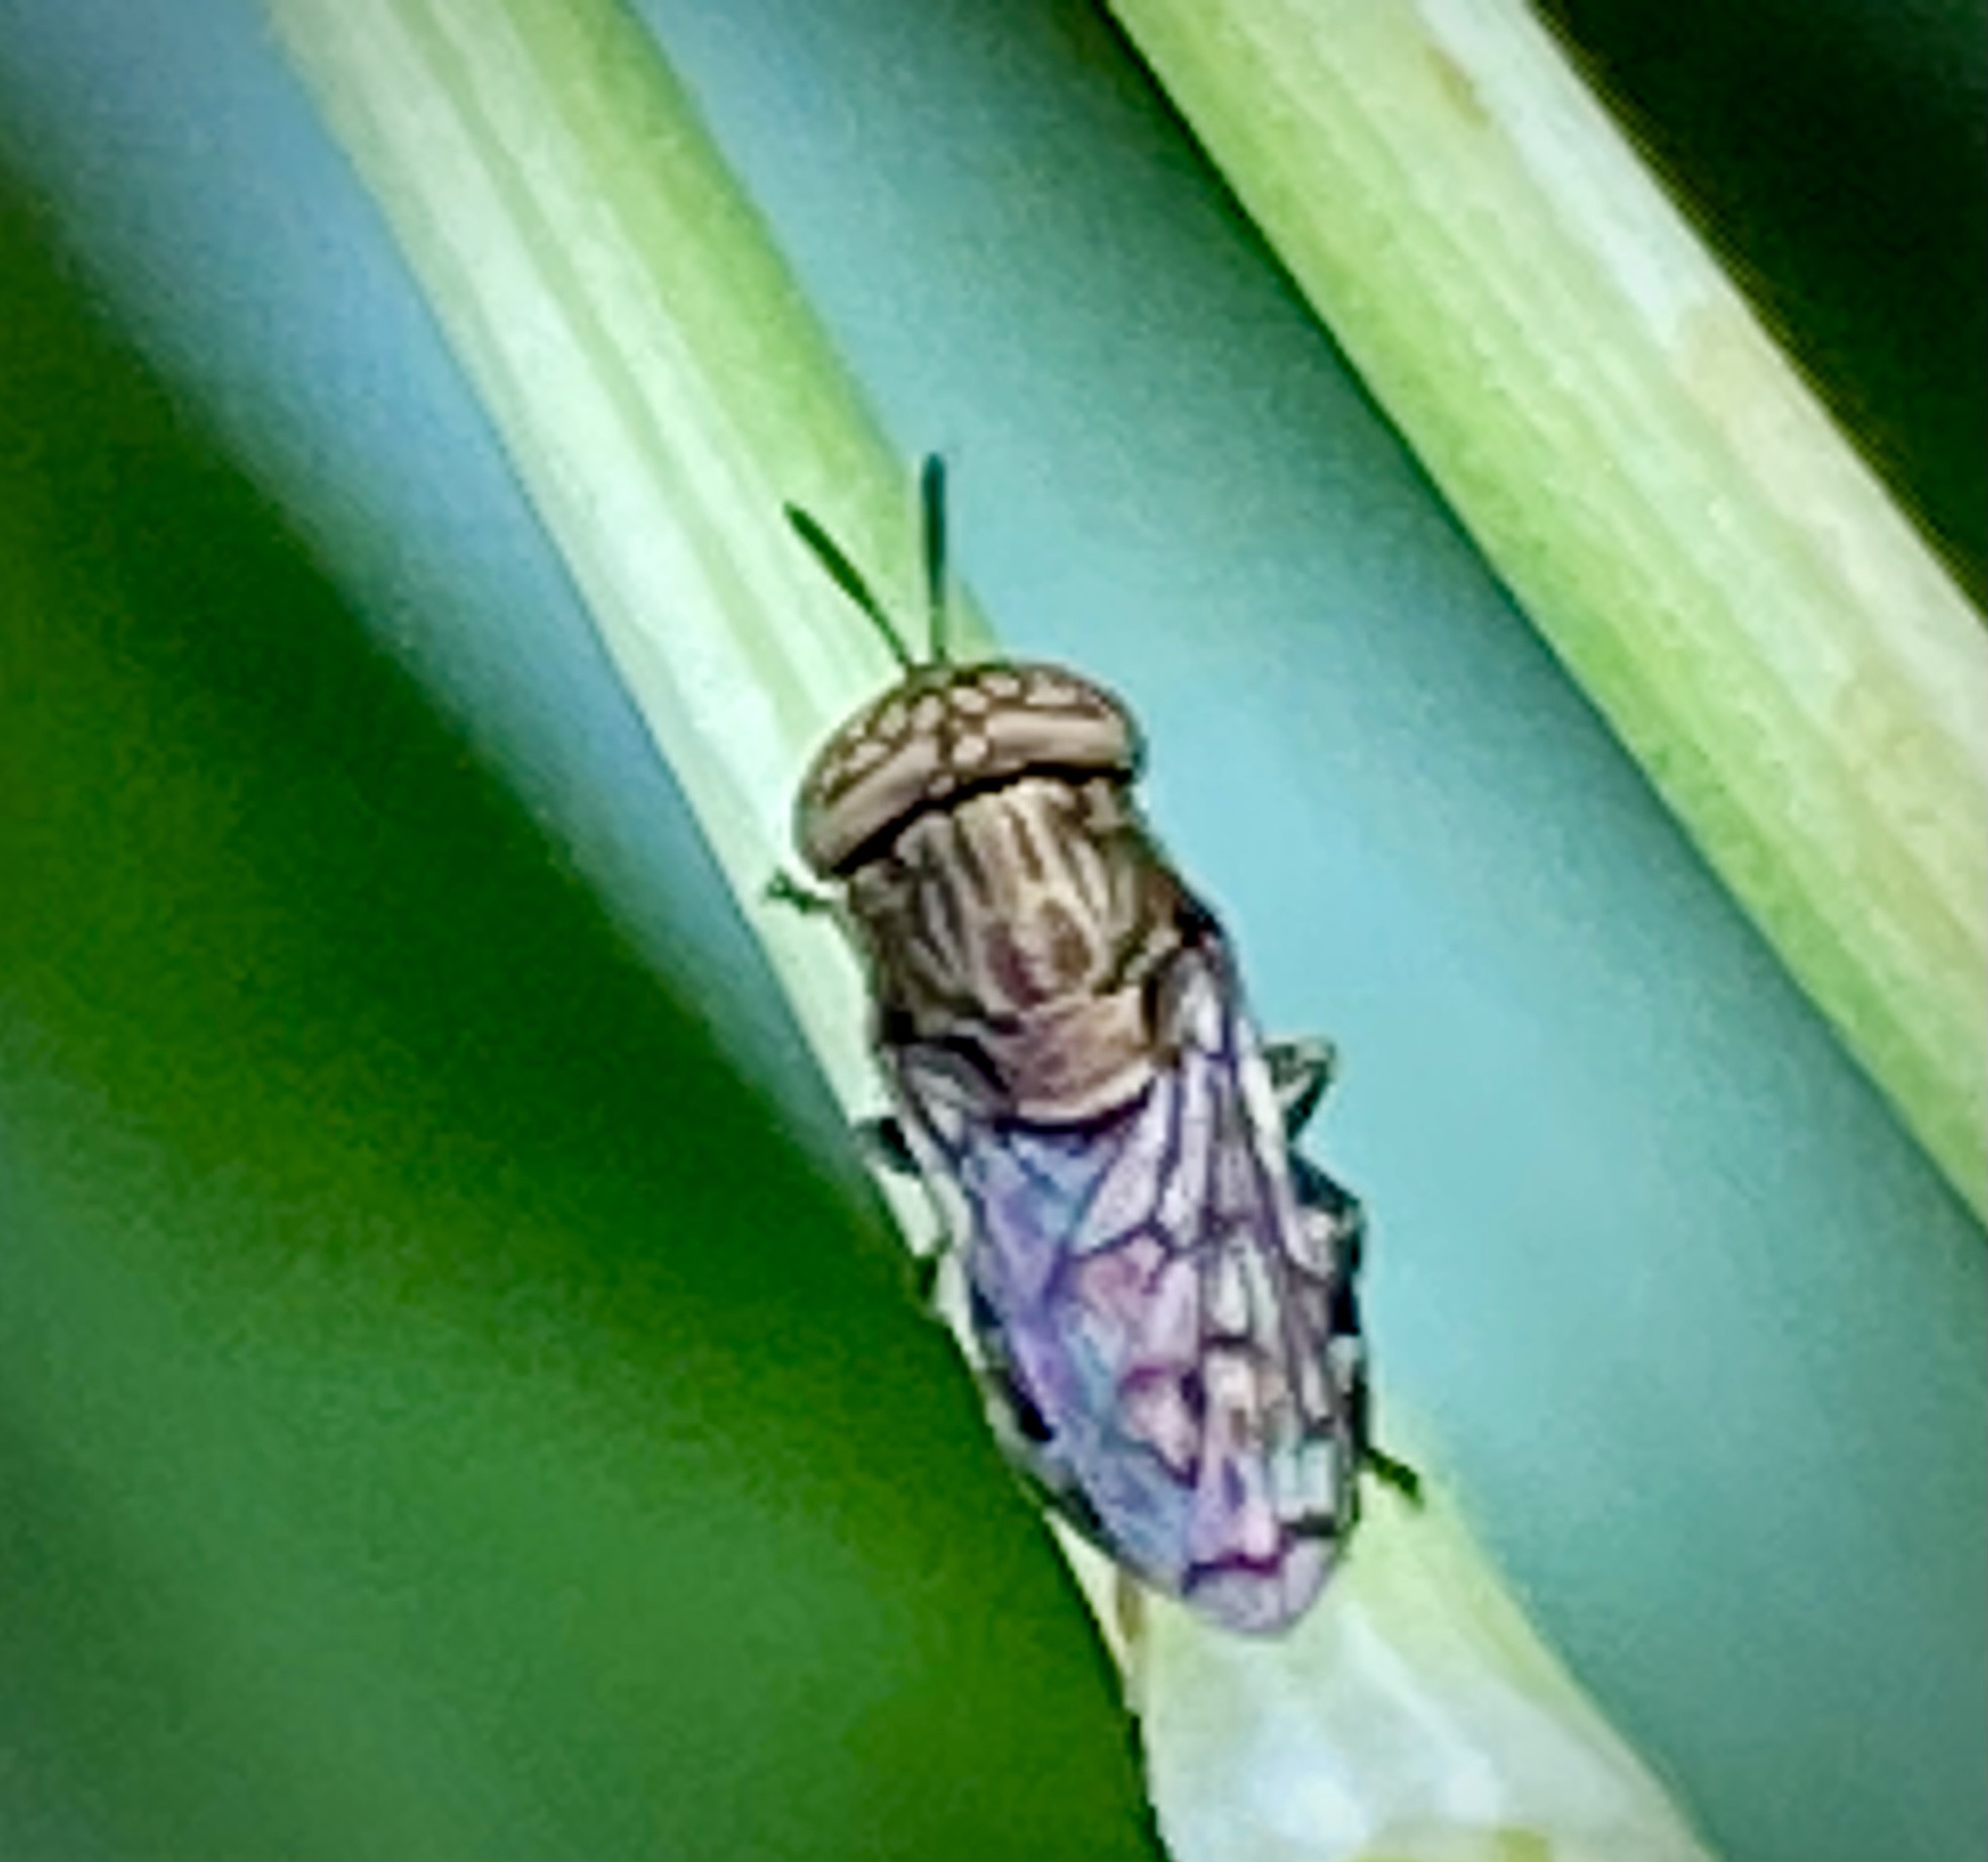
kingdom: Animalia
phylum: Arthropoda
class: Insecta
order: Diptera
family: Syrphidae
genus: Orthonevra
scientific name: Orthonevra nitida
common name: Wavy mucksucker
